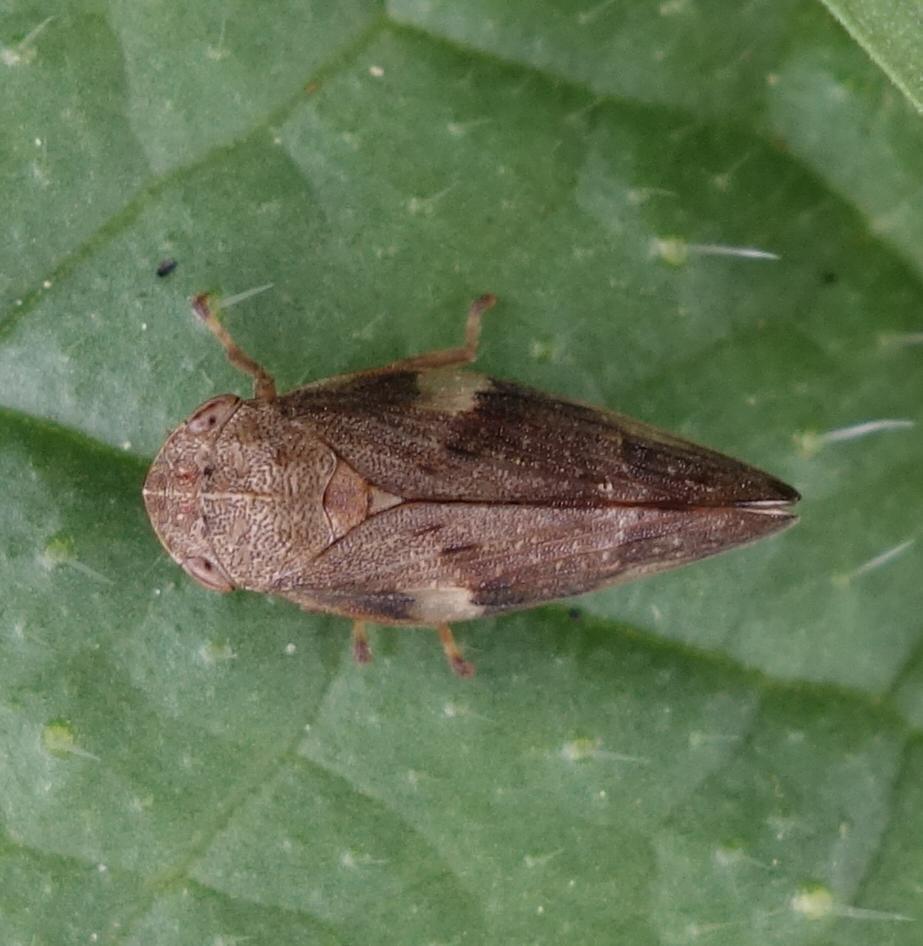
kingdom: Animalia
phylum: Arthropoda
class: Insecta
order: Hemiptera
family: Aphrophoridae
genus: Aphrophora
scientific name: Aphrophora alni
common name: European alder spittlebug
